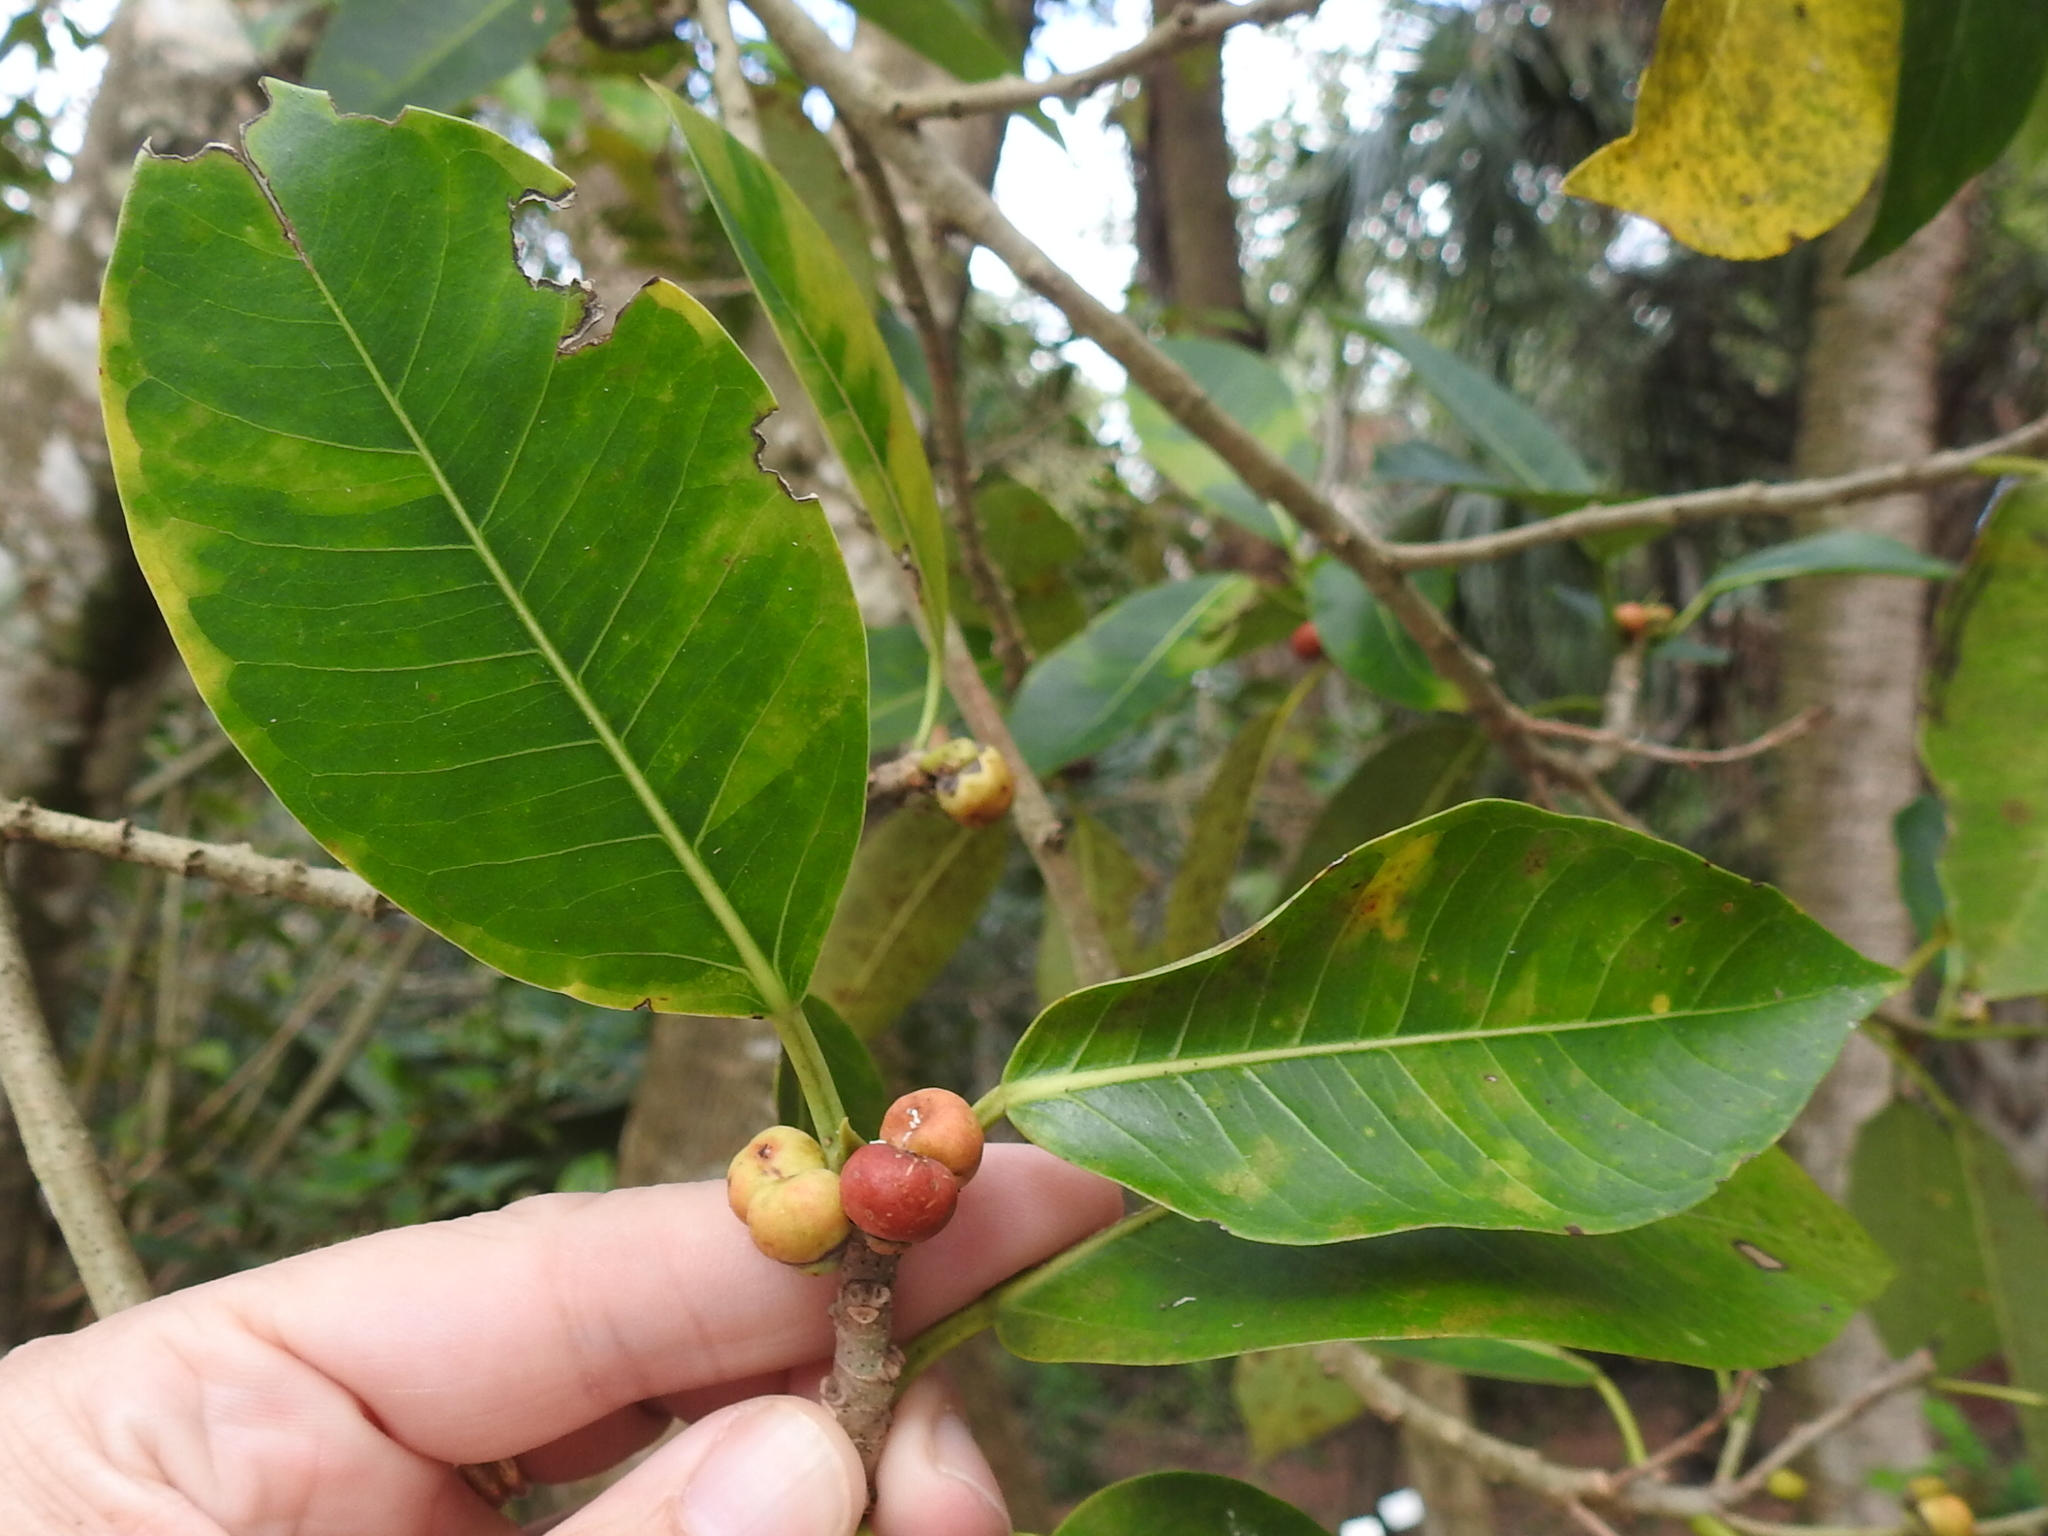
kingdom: Plantae
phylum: Tracheophyta
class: Magnoliopsida
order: Rosales
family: Moraceae
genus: Ficus
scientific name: Ficus aurea
